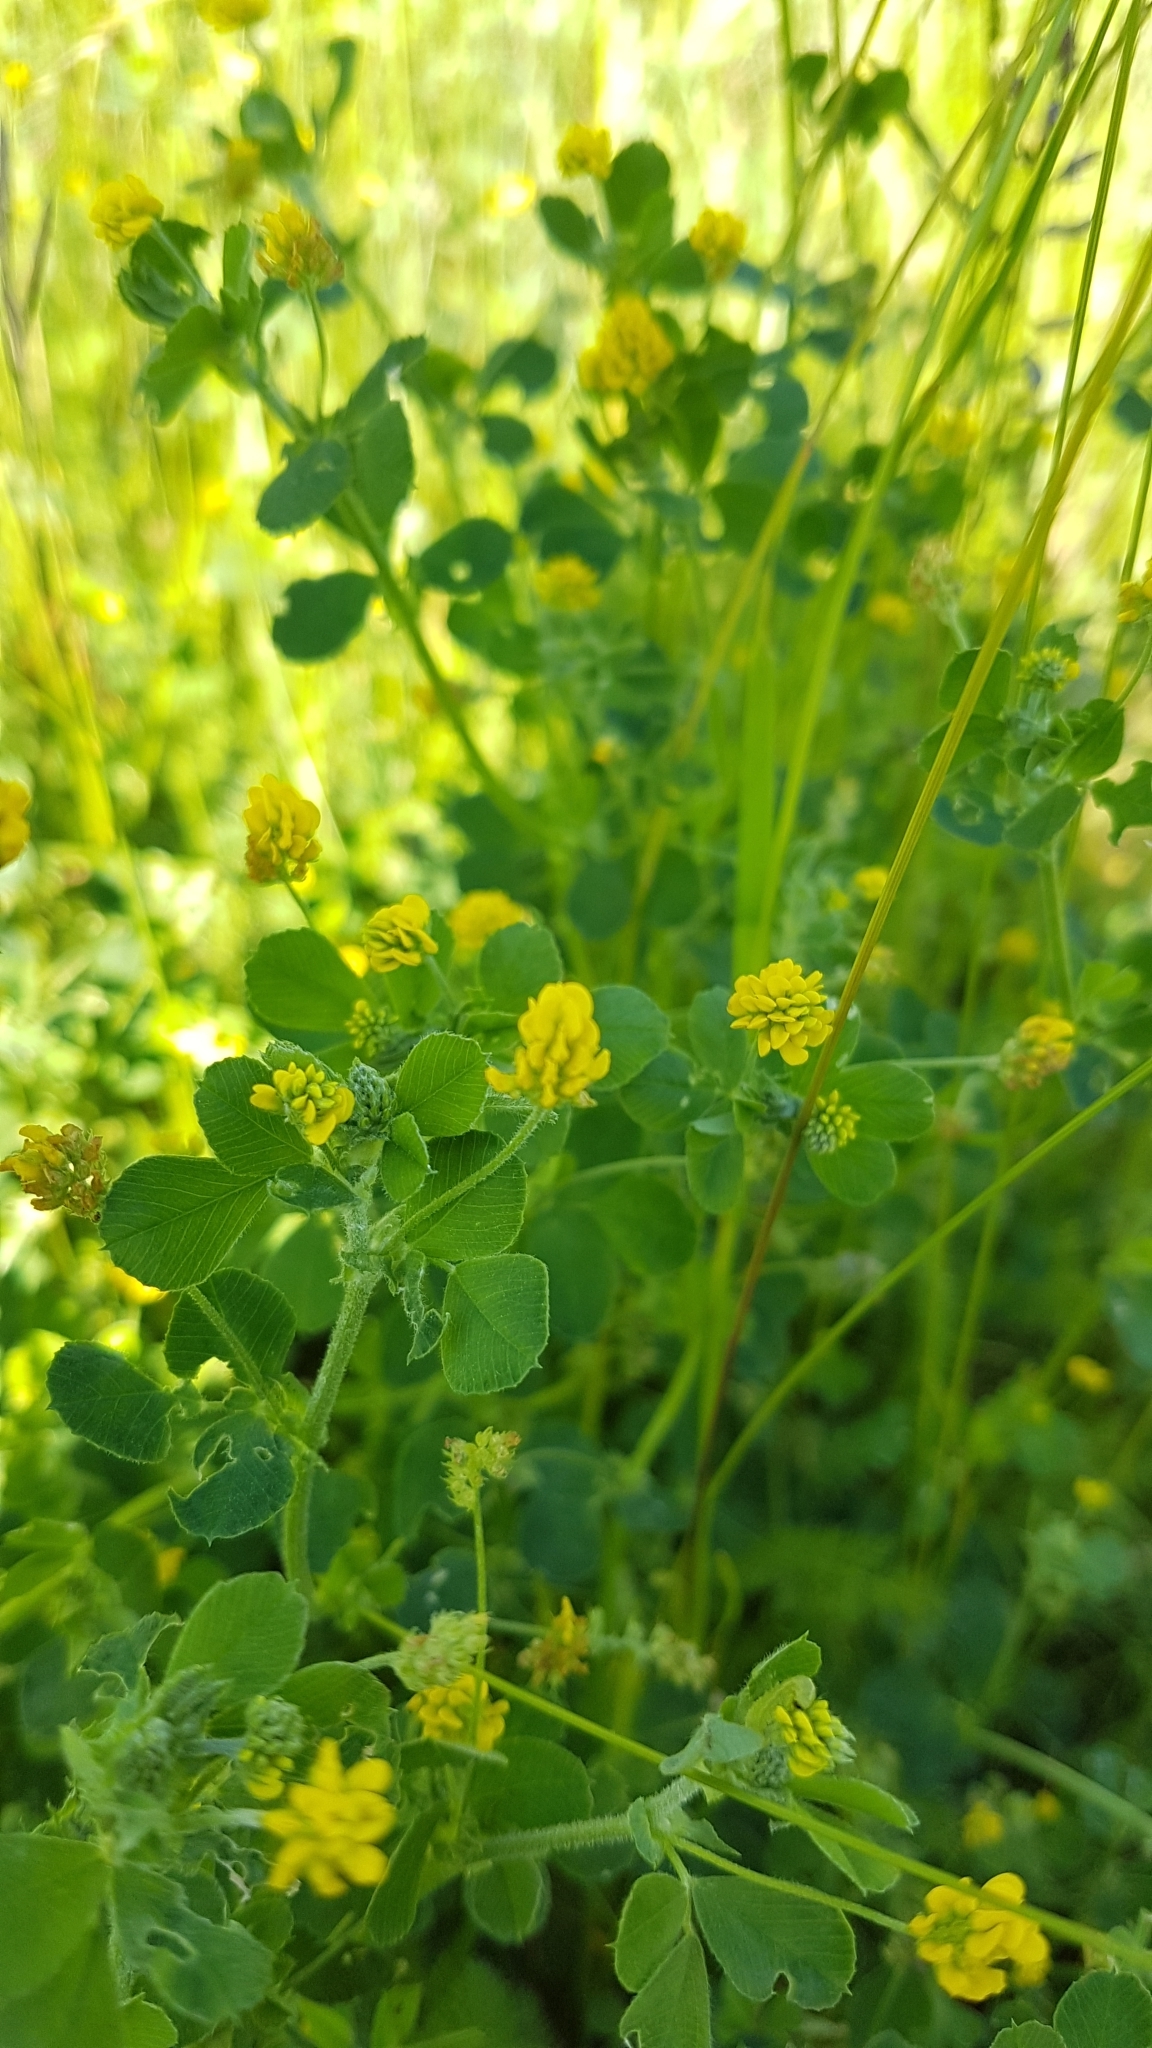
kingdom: Plantae
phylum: Tracheophyta
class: Magnoliopsida
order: Fabales
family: Fabaceae
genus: Medicago
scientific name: Medicago lupulina
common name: Black medick
